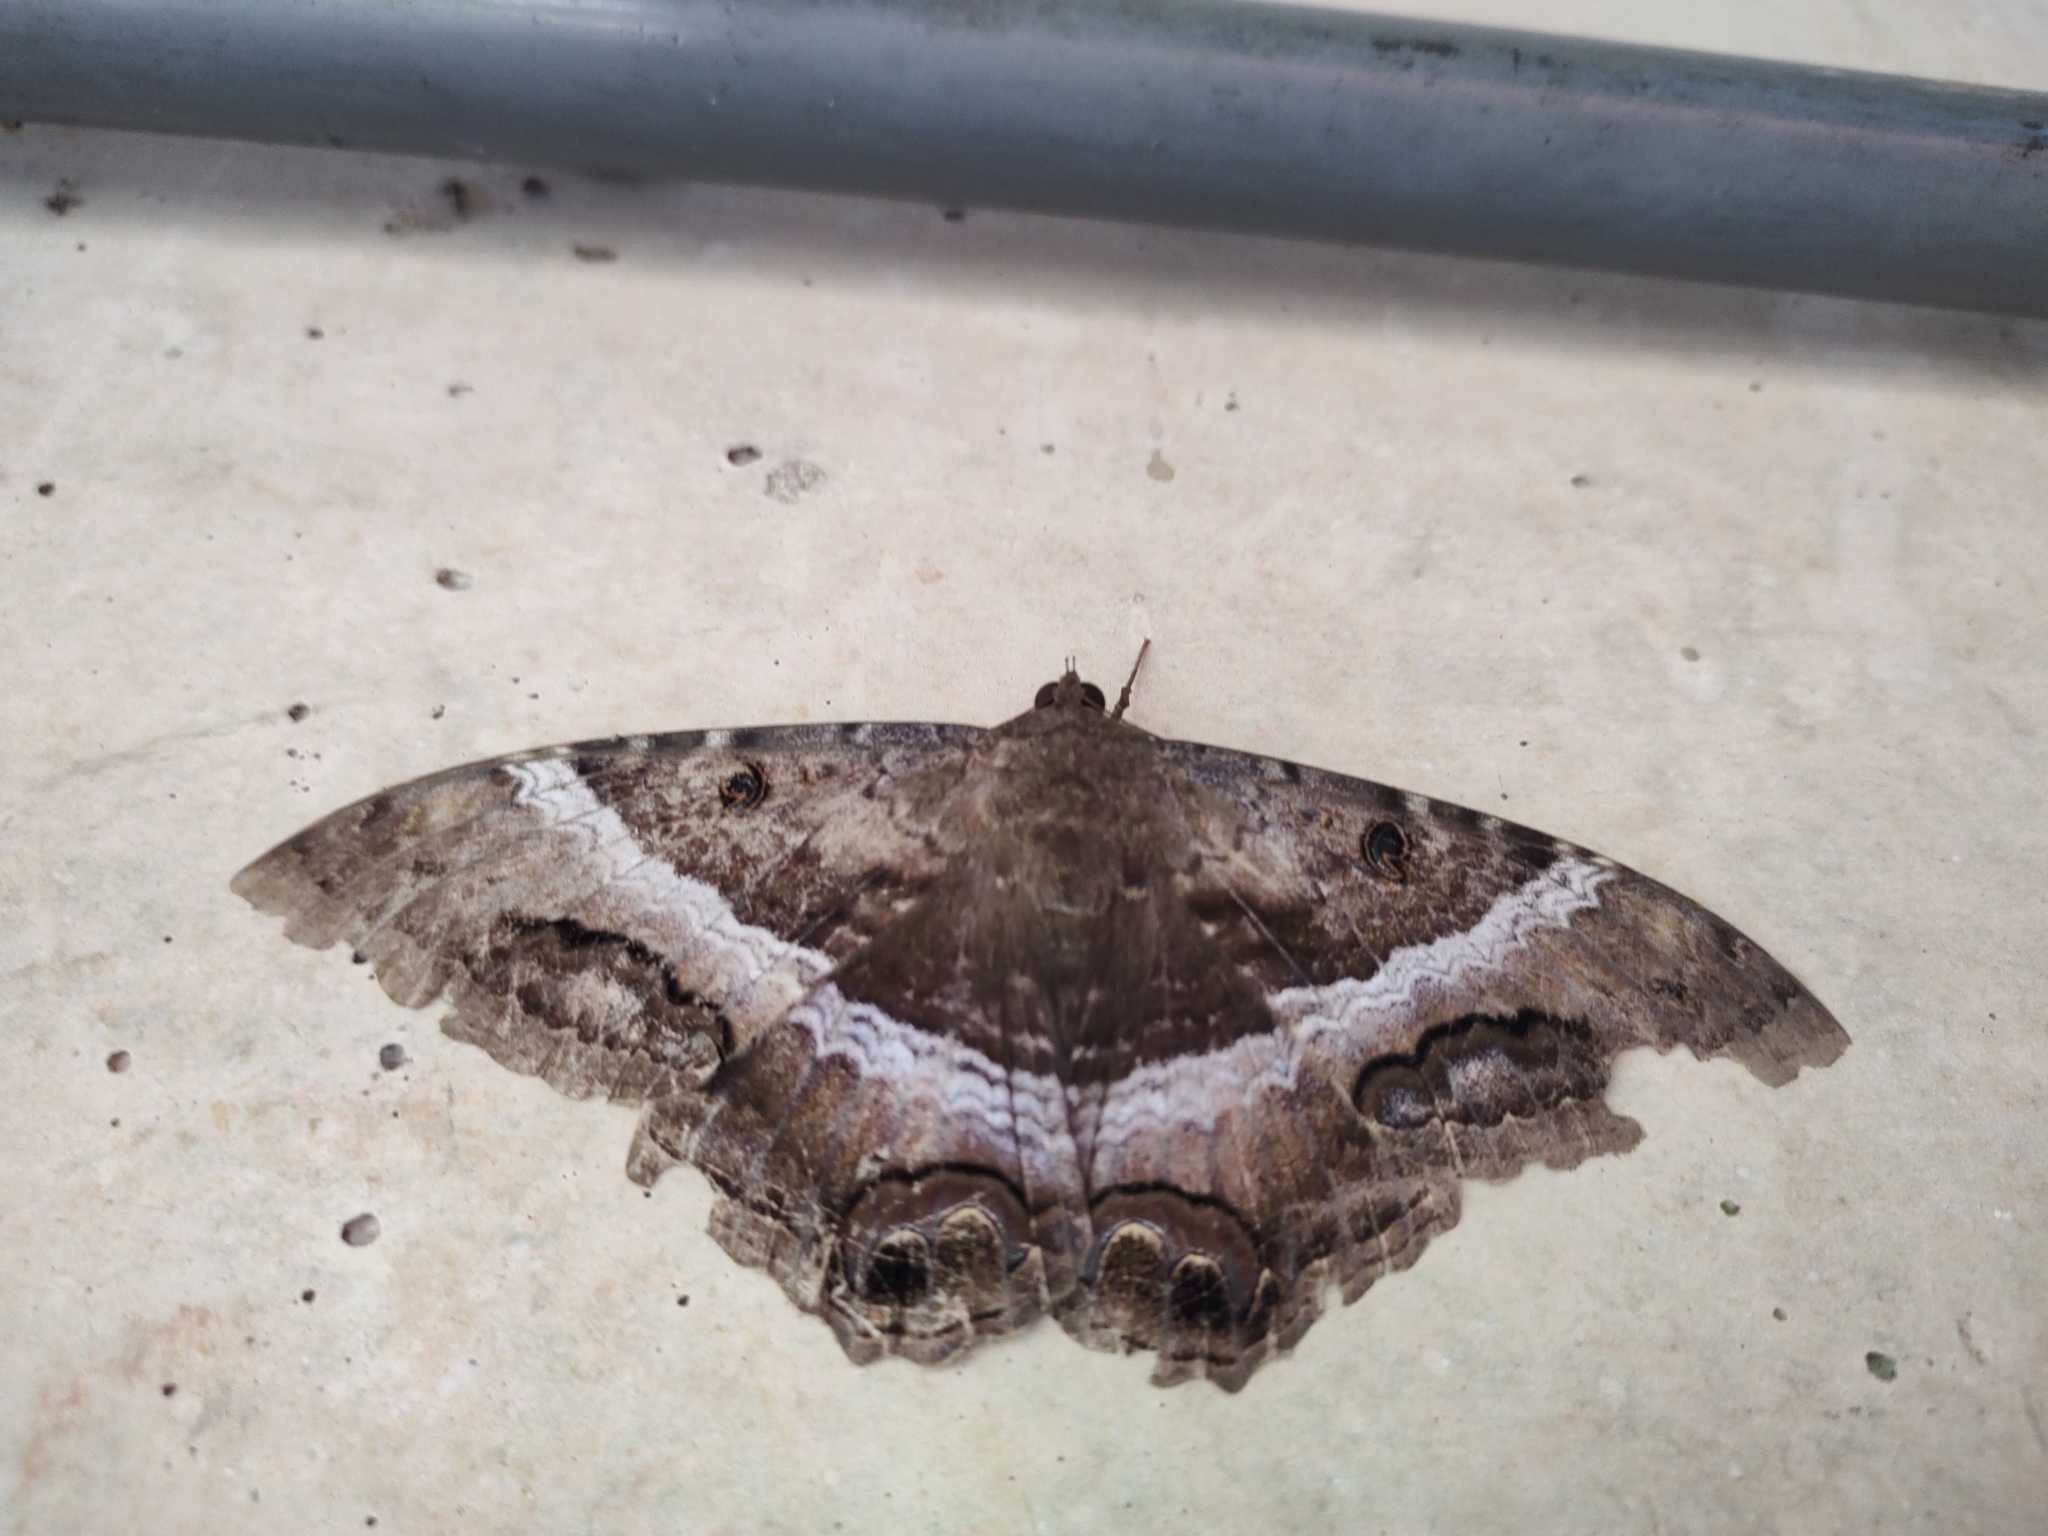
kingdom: Animalia
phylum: Arthropoda
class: Insecta
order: Lepidoptera
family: Erebidae
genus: Ascalapha
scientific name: Ascalapha odorata
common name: Black witch
